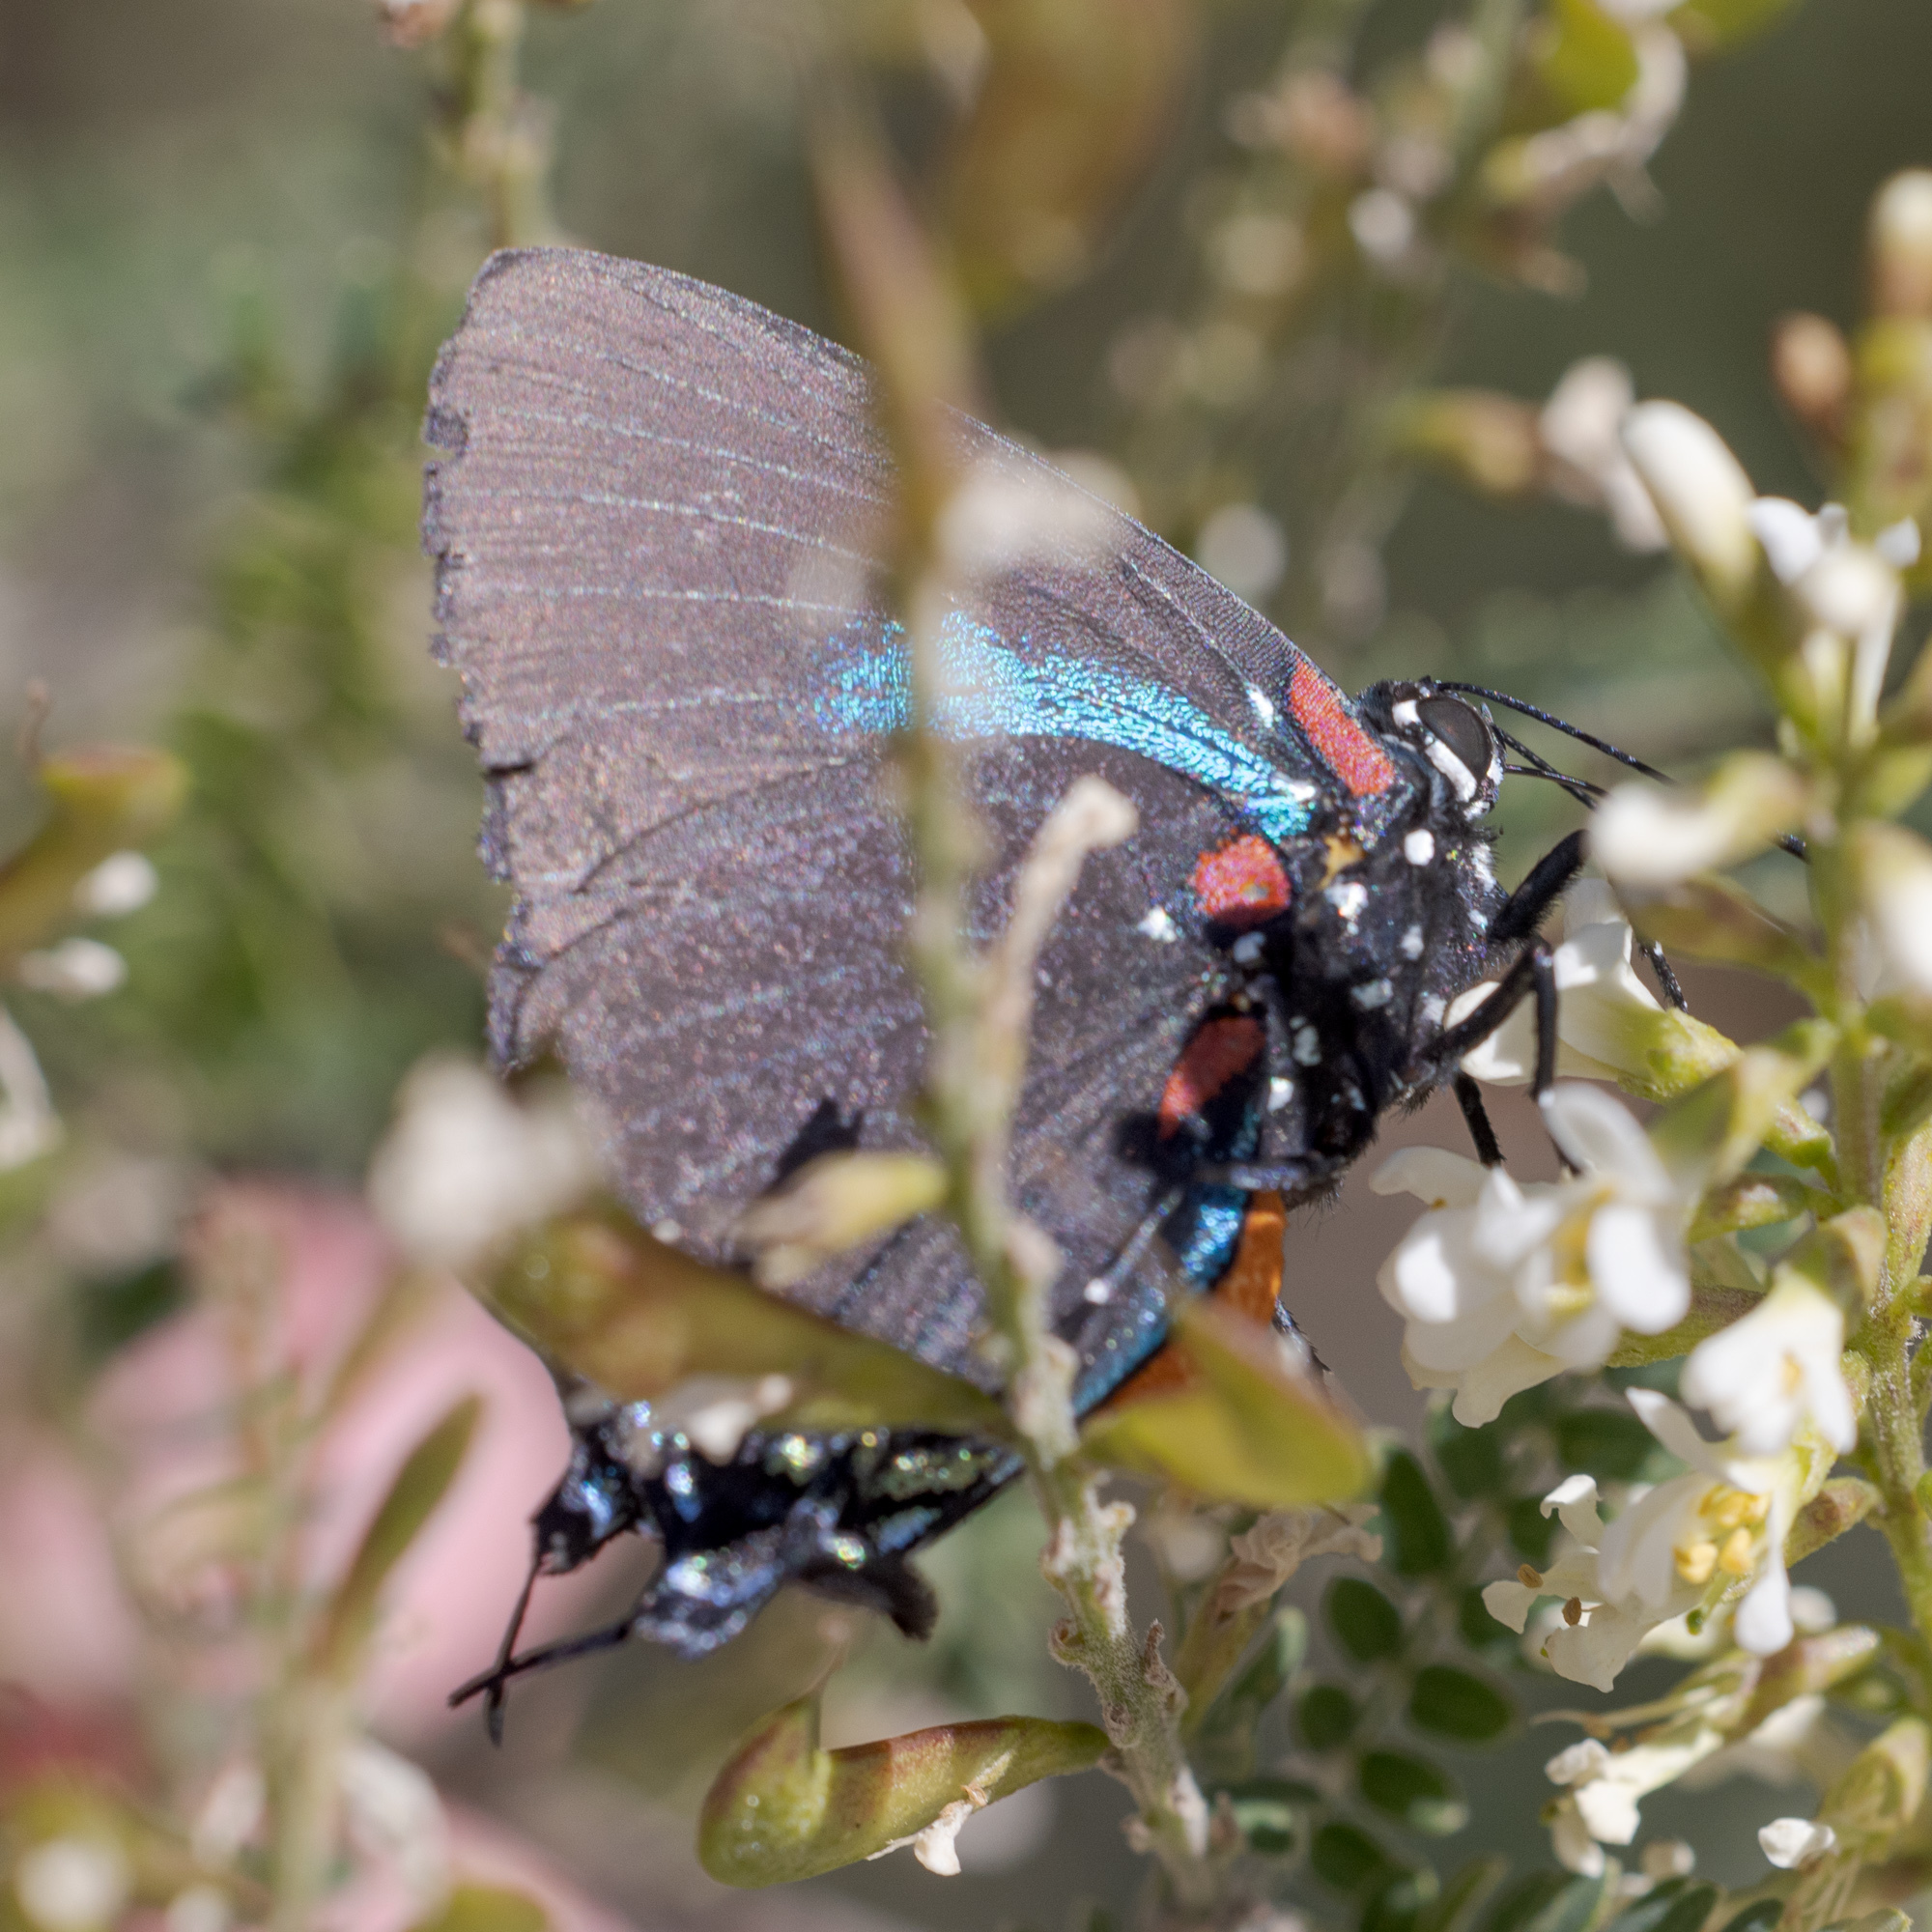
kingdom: Animalia
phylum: Arthropoda
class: Insecta
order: Lepidoptera
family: Lycaenidae
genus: Atlides
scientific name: Atlides halesus
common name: Great purple hairstreak
